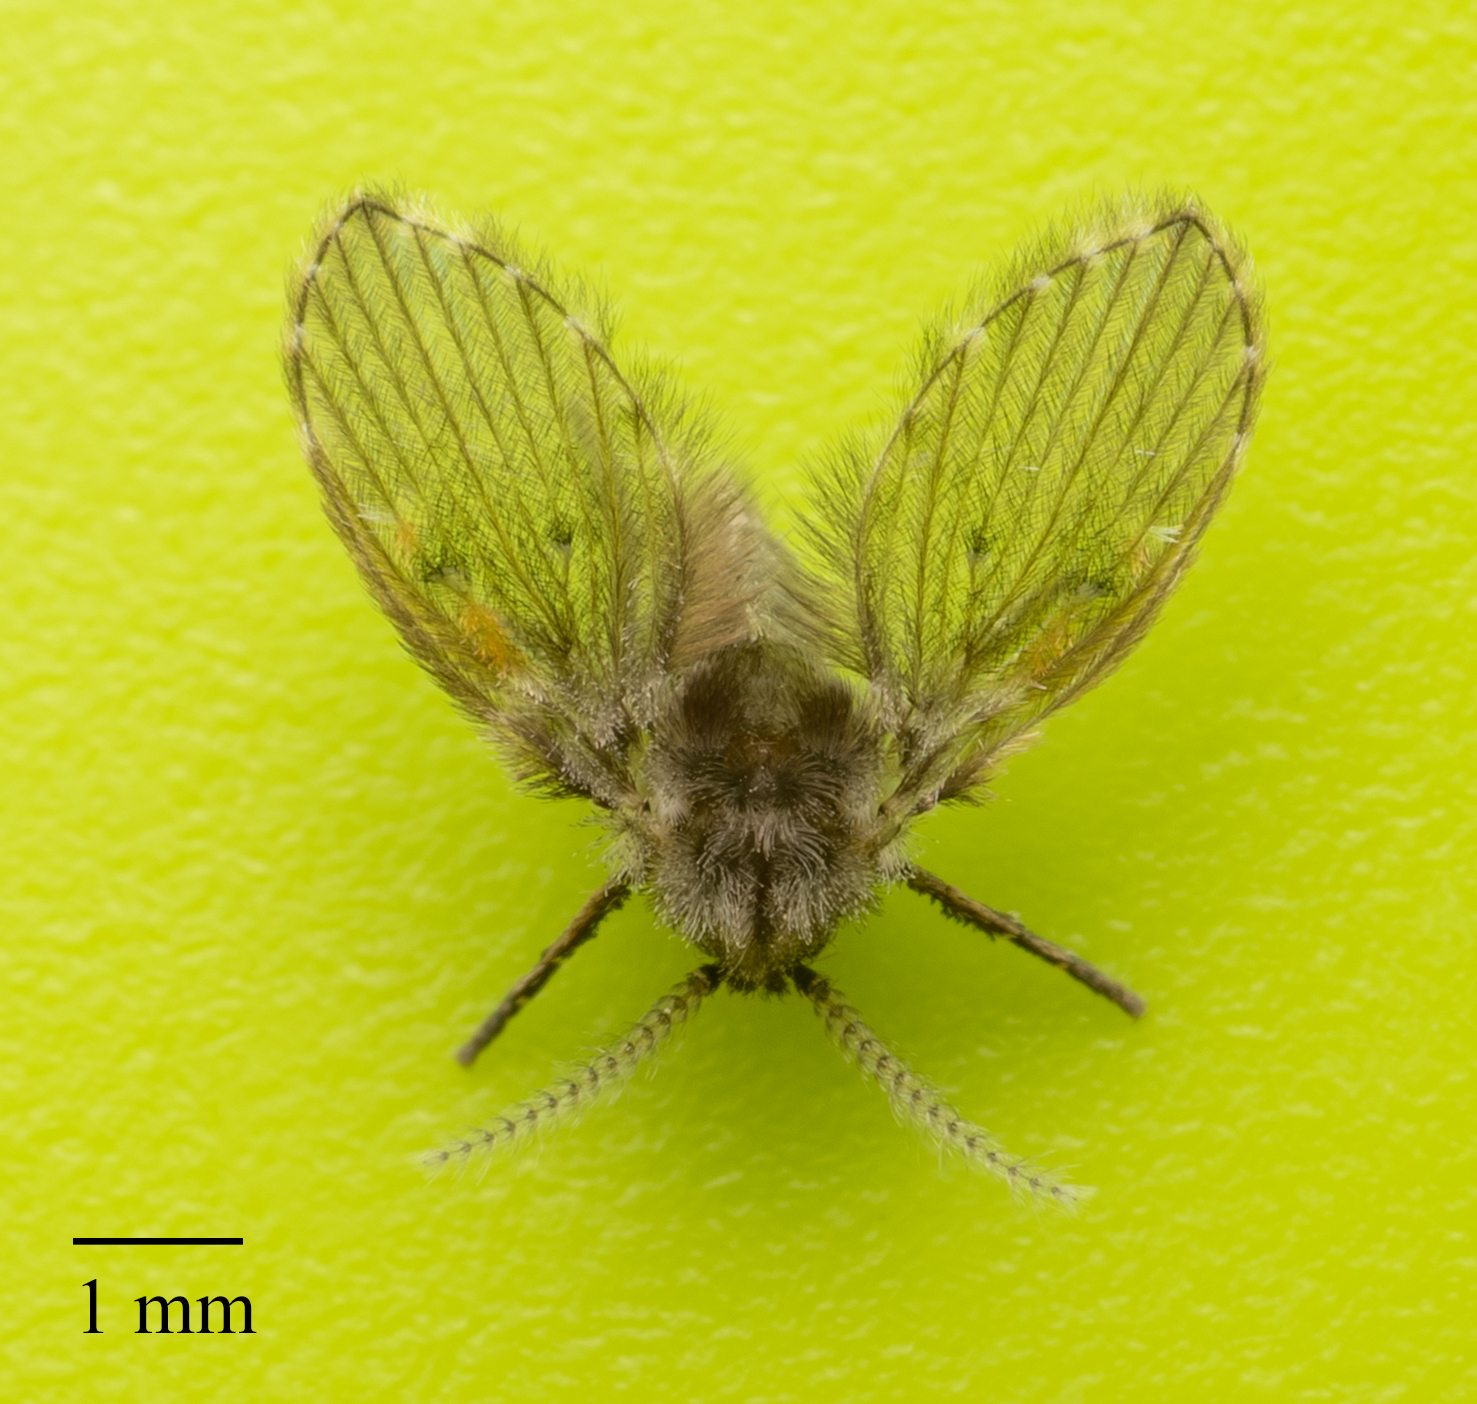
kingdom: Animalia
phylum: Arthropoda
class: Insecta
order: Diptera
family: Psychodidae
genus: Clogmia
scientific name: Clogmia albipunctatus
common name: White-spotted moth fly
